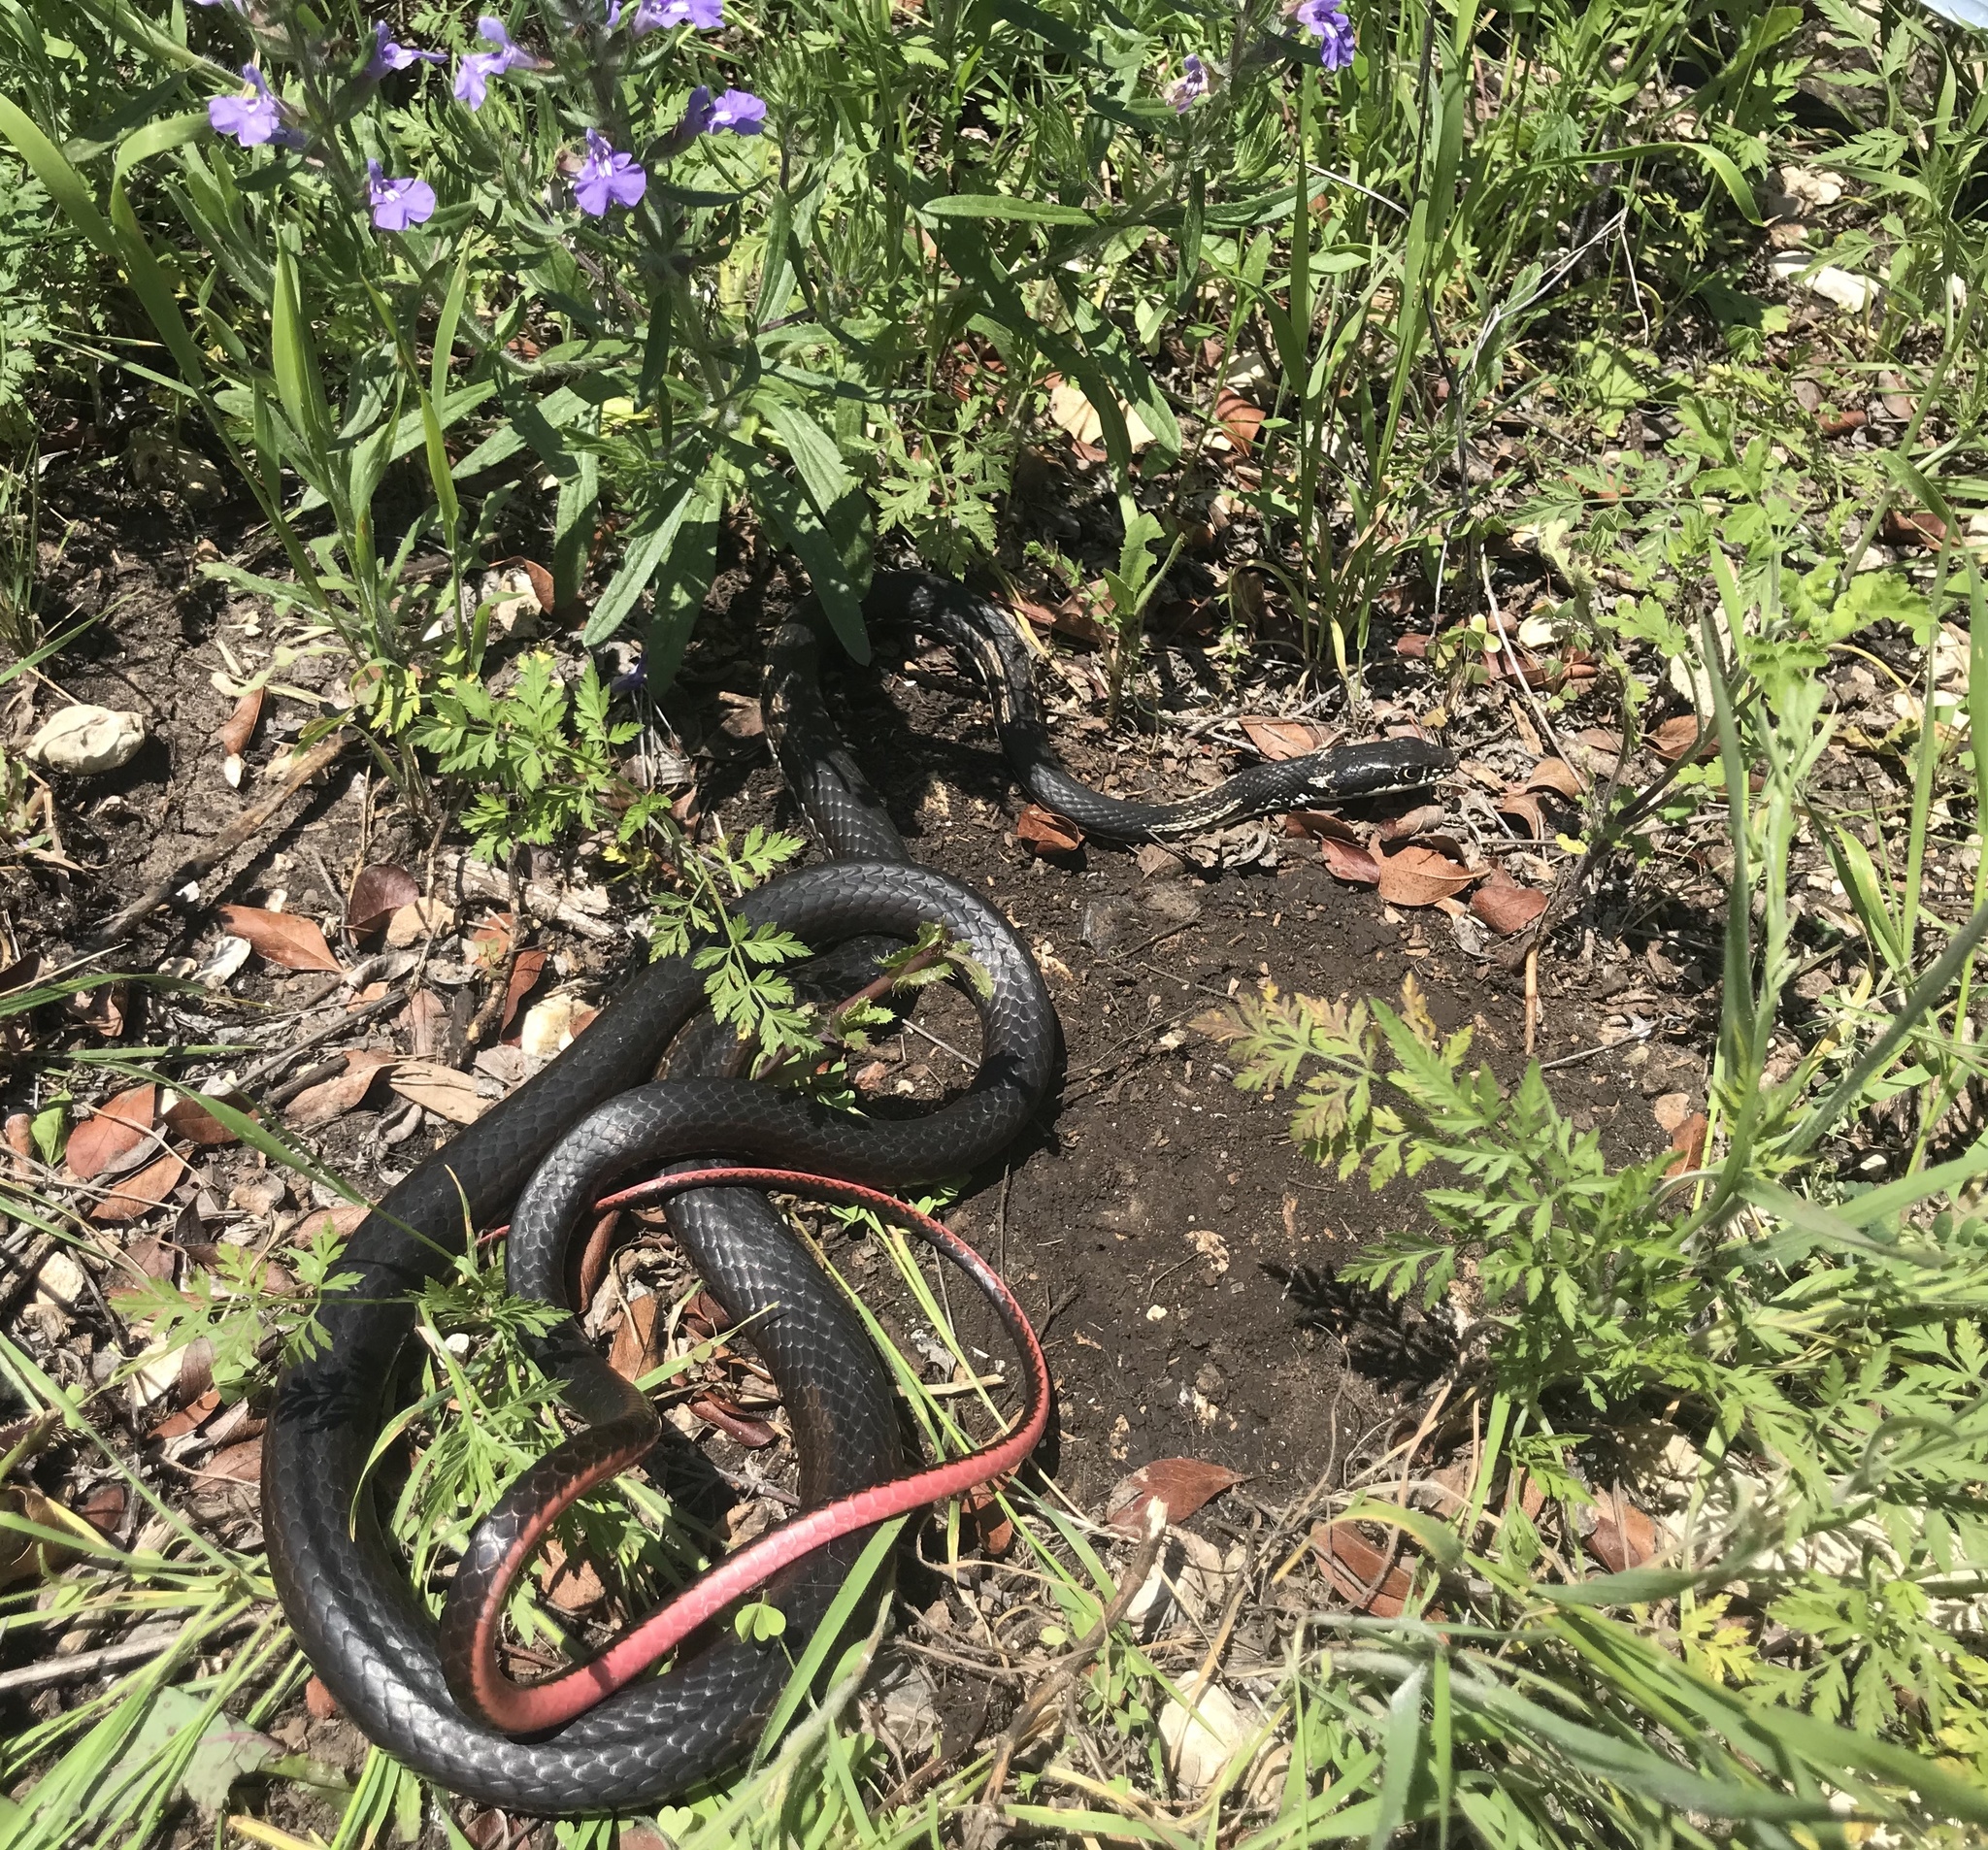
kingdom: Animalia
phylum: Chordata
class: Squamata
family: Colubridae
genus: Masticophis
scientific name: Masticophis taeniatus
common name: Striped whipsnake
